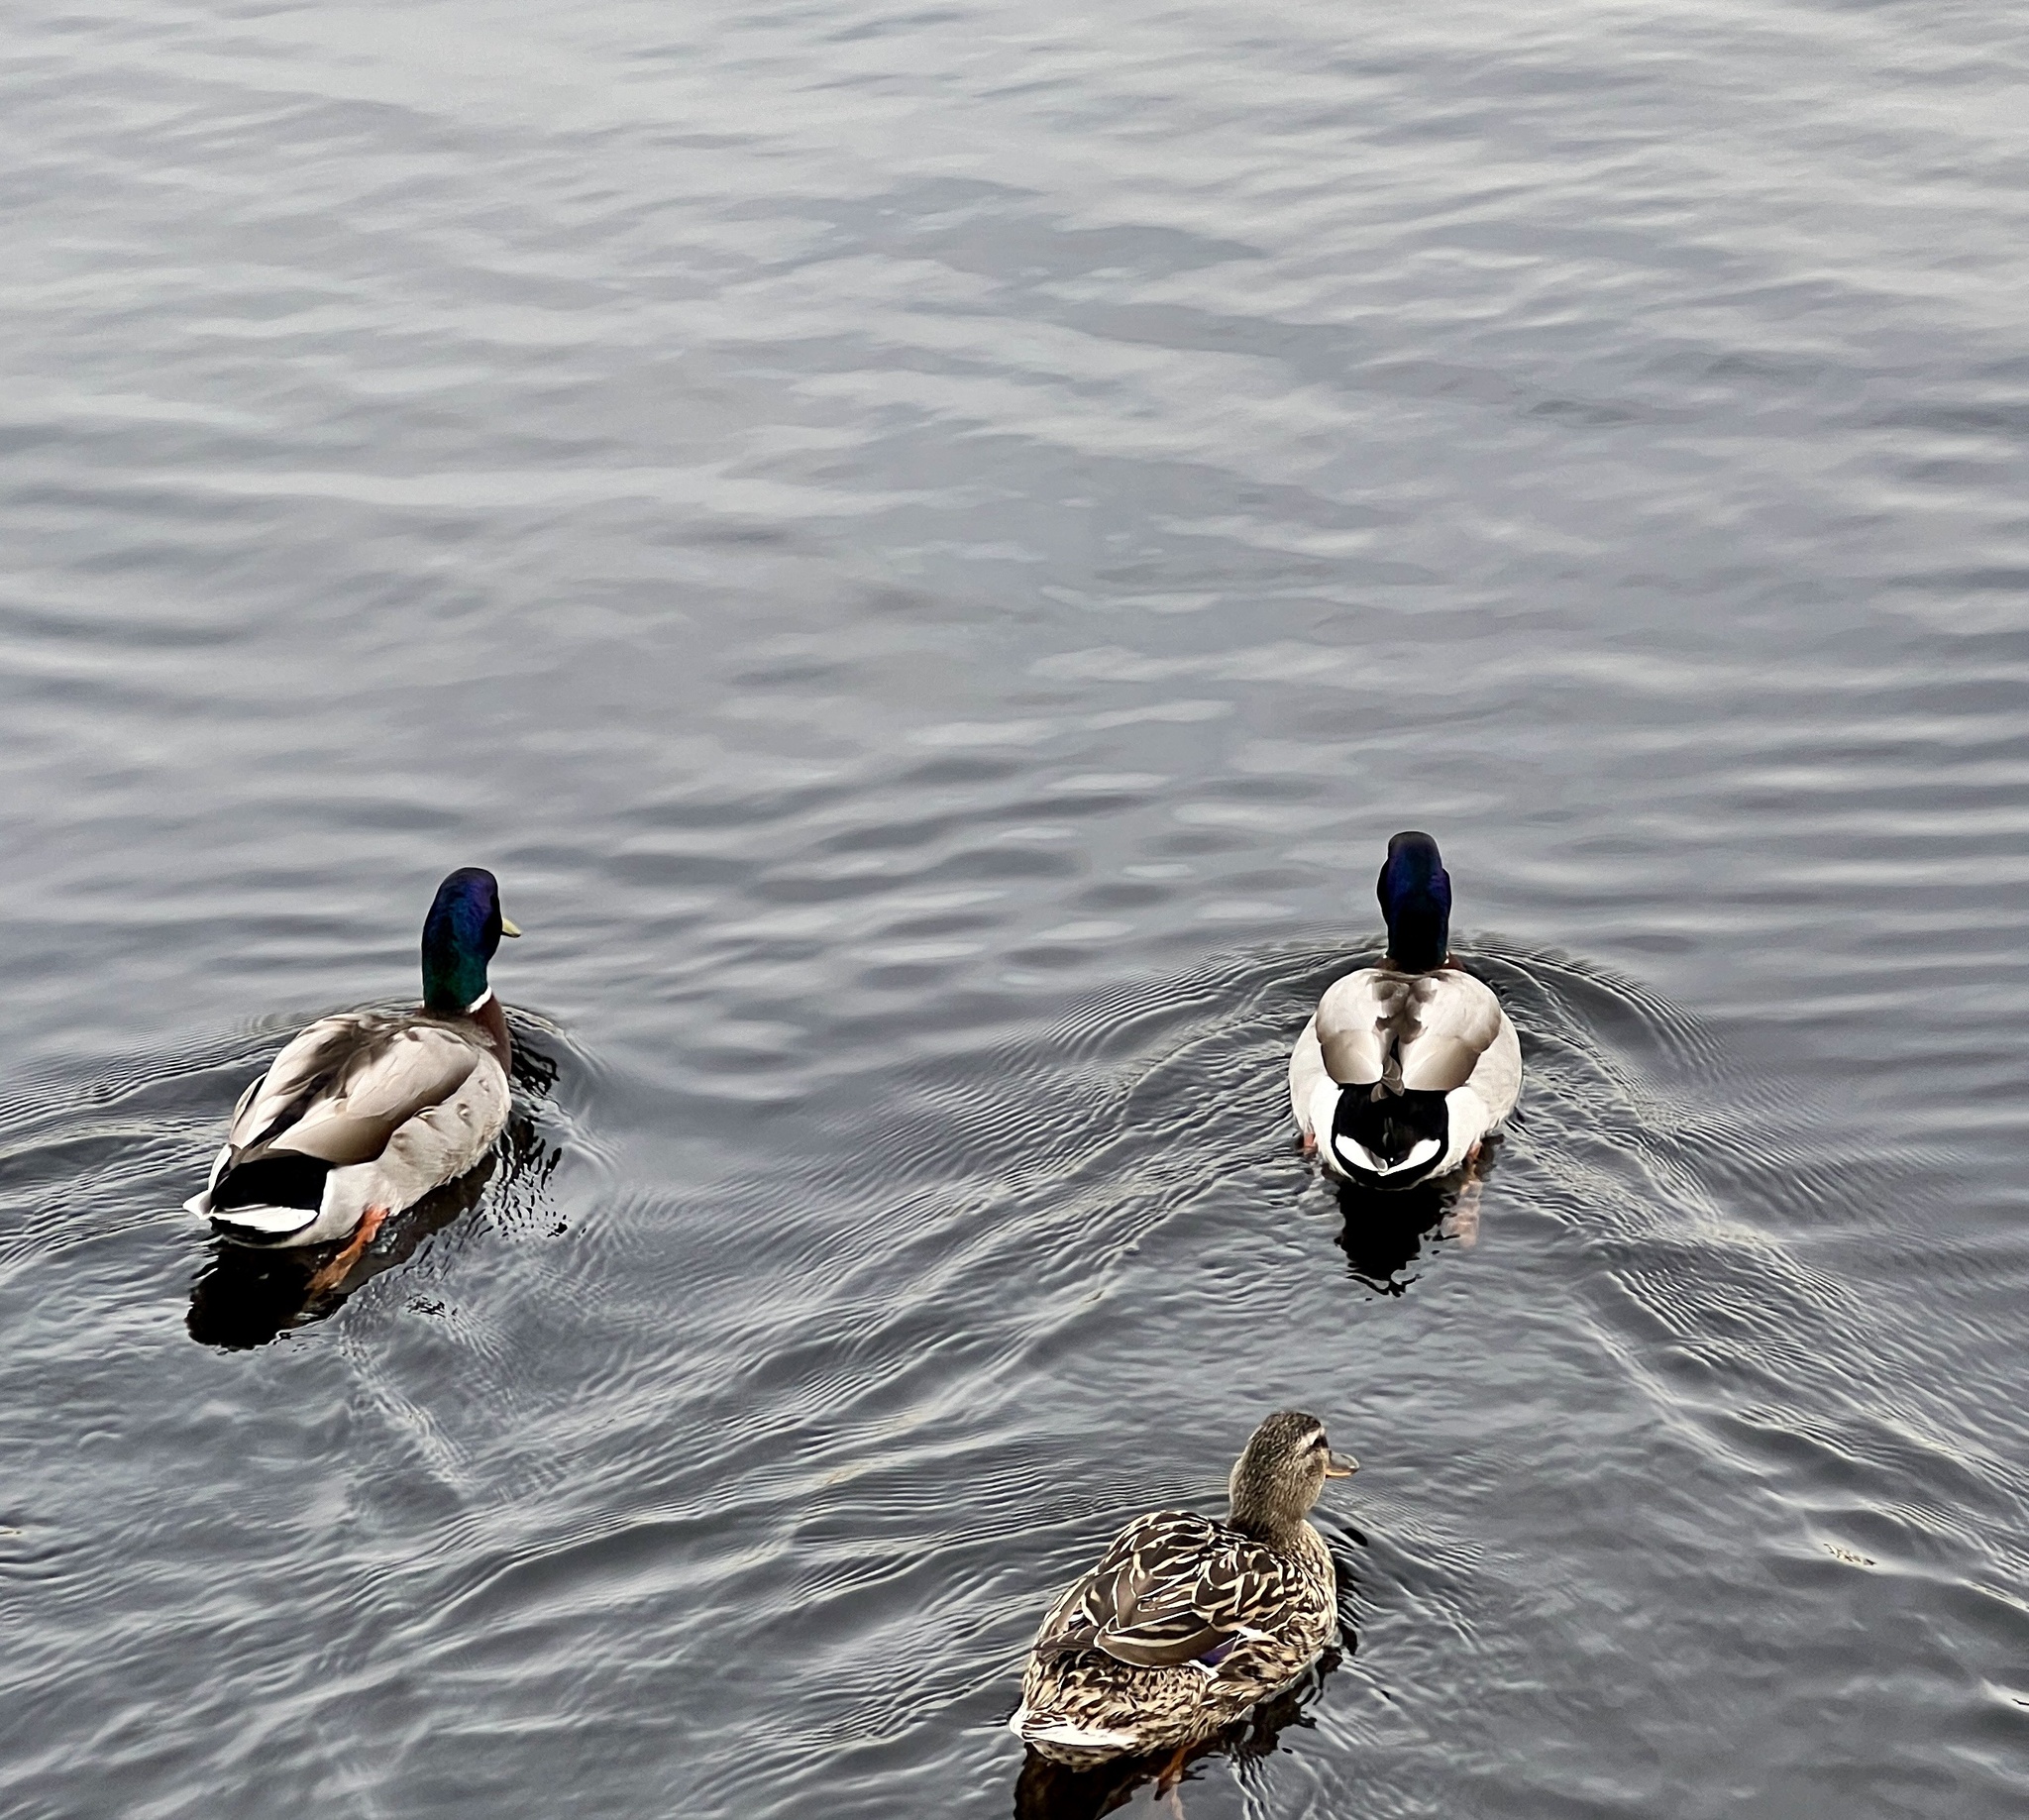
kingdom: Animalia
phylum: Chordata
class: Aves
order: Anseriformes
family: Anatidae
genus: Anas
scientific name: Anas platyrhynchos
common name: Mallard
